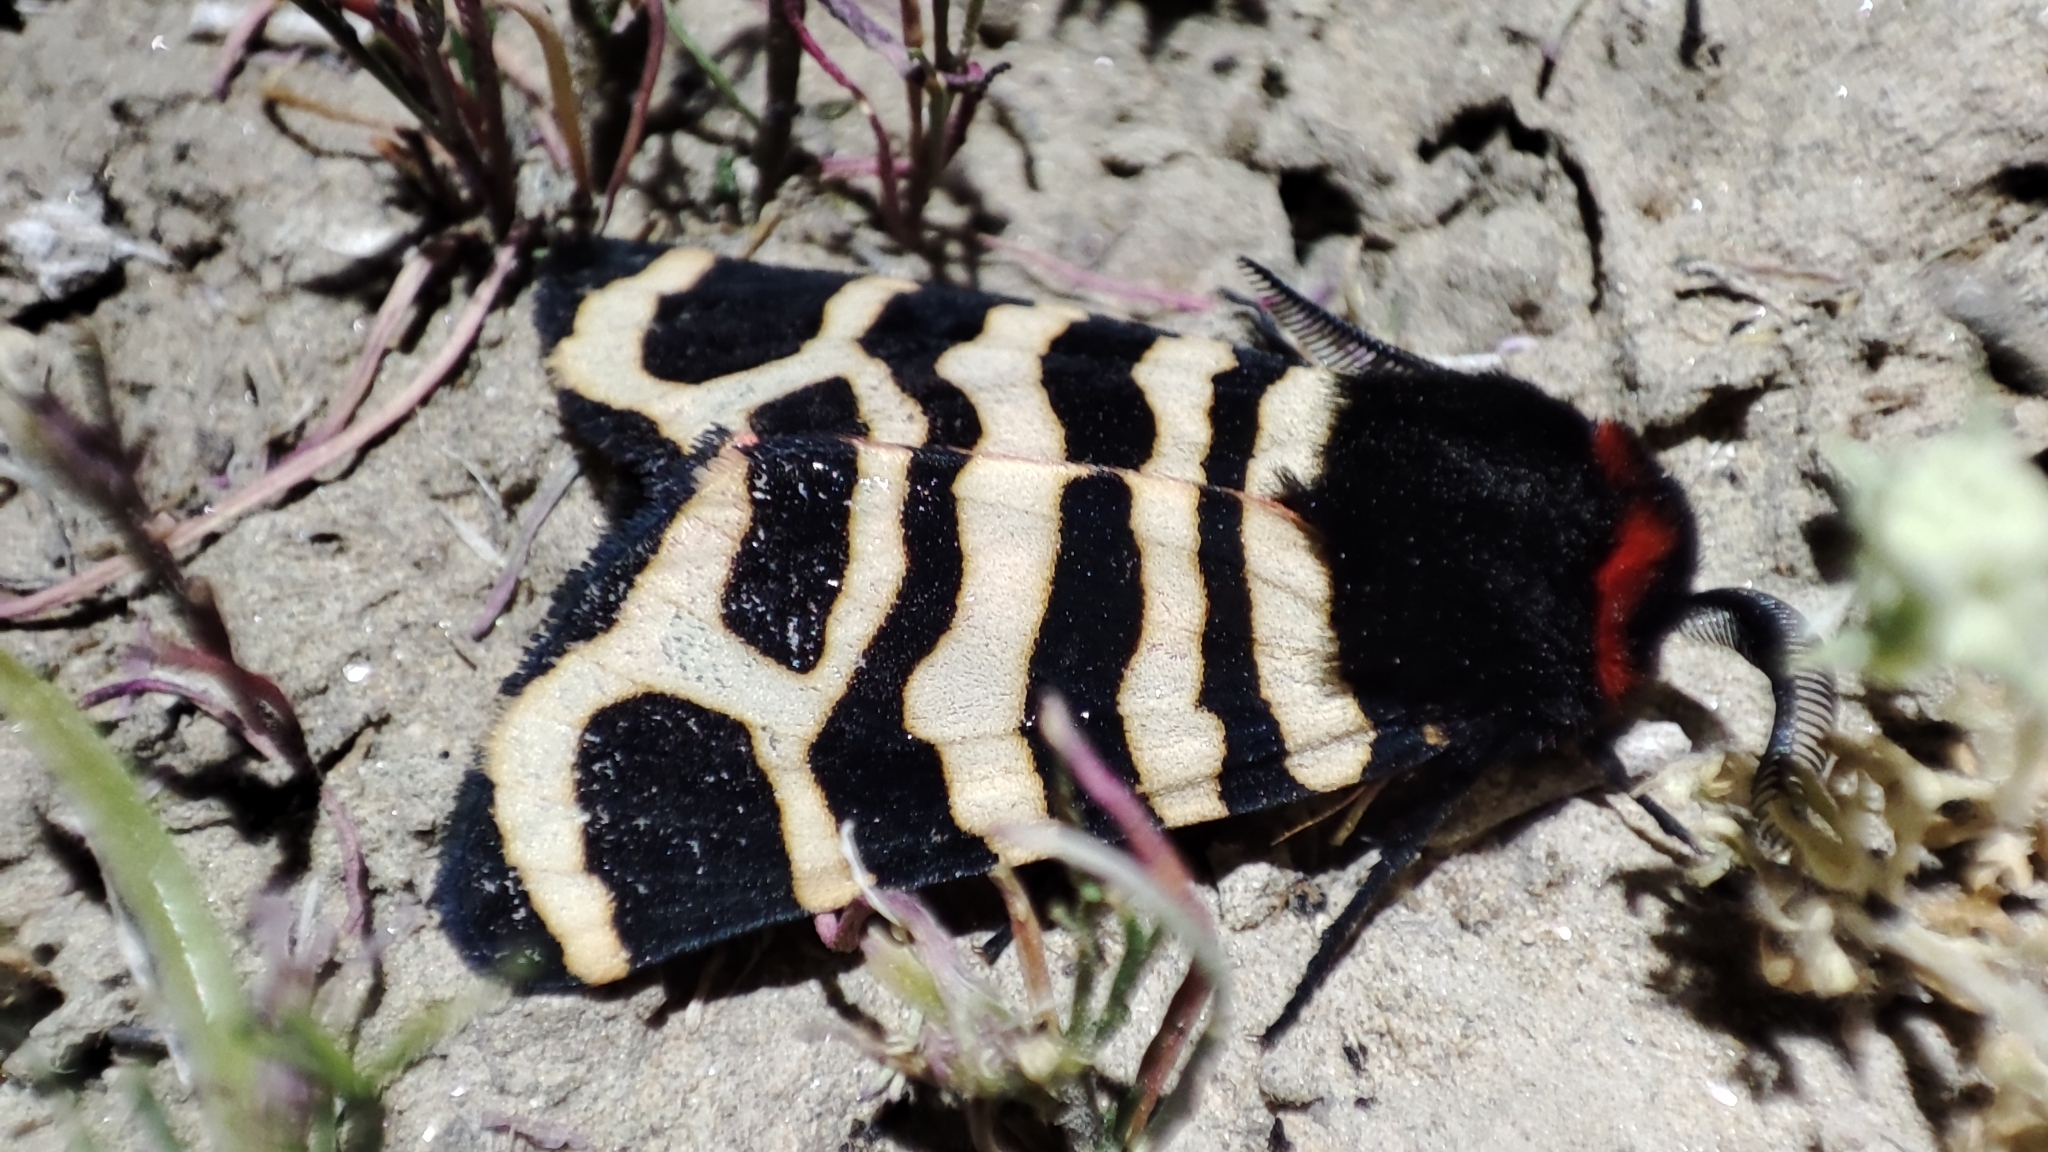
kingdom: Animalia
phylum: Arthropoda
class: Insecta
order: Lepidoptera
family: Erebidae
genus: Eucharia
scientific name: Eucharia festiva
